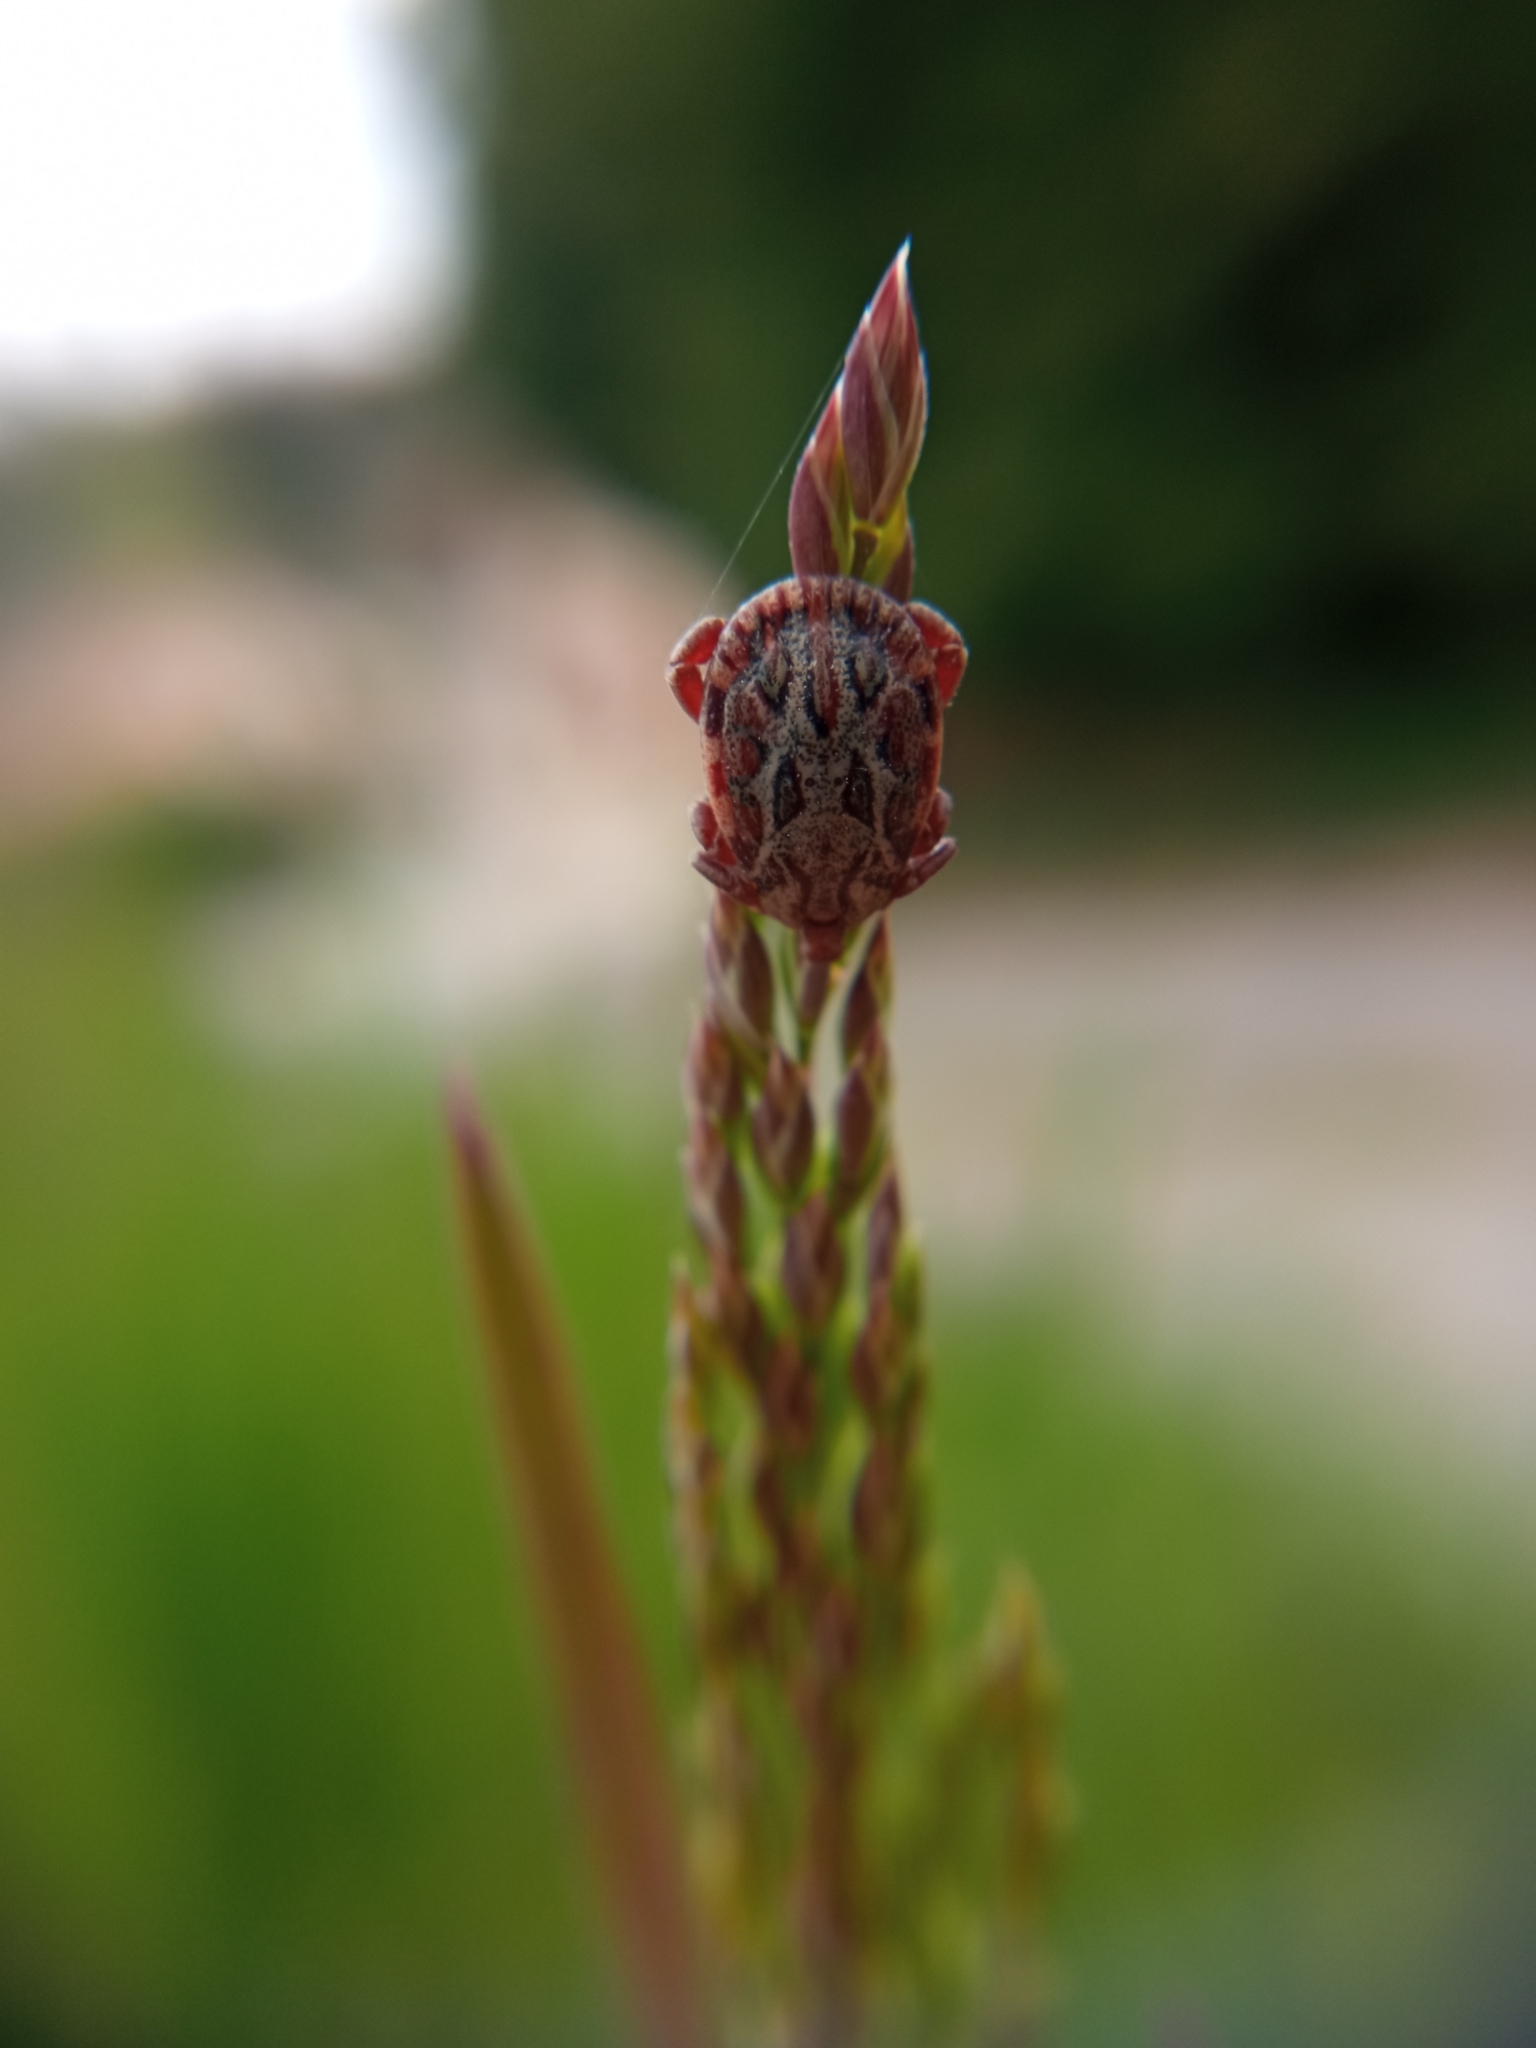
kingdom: Animalia
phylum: Arthropoda
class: Arachnida
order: Ixodida
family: Ixodidae
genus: Dermacentor
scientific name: Dermacentor marginatus
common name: Ornate sheep tick
